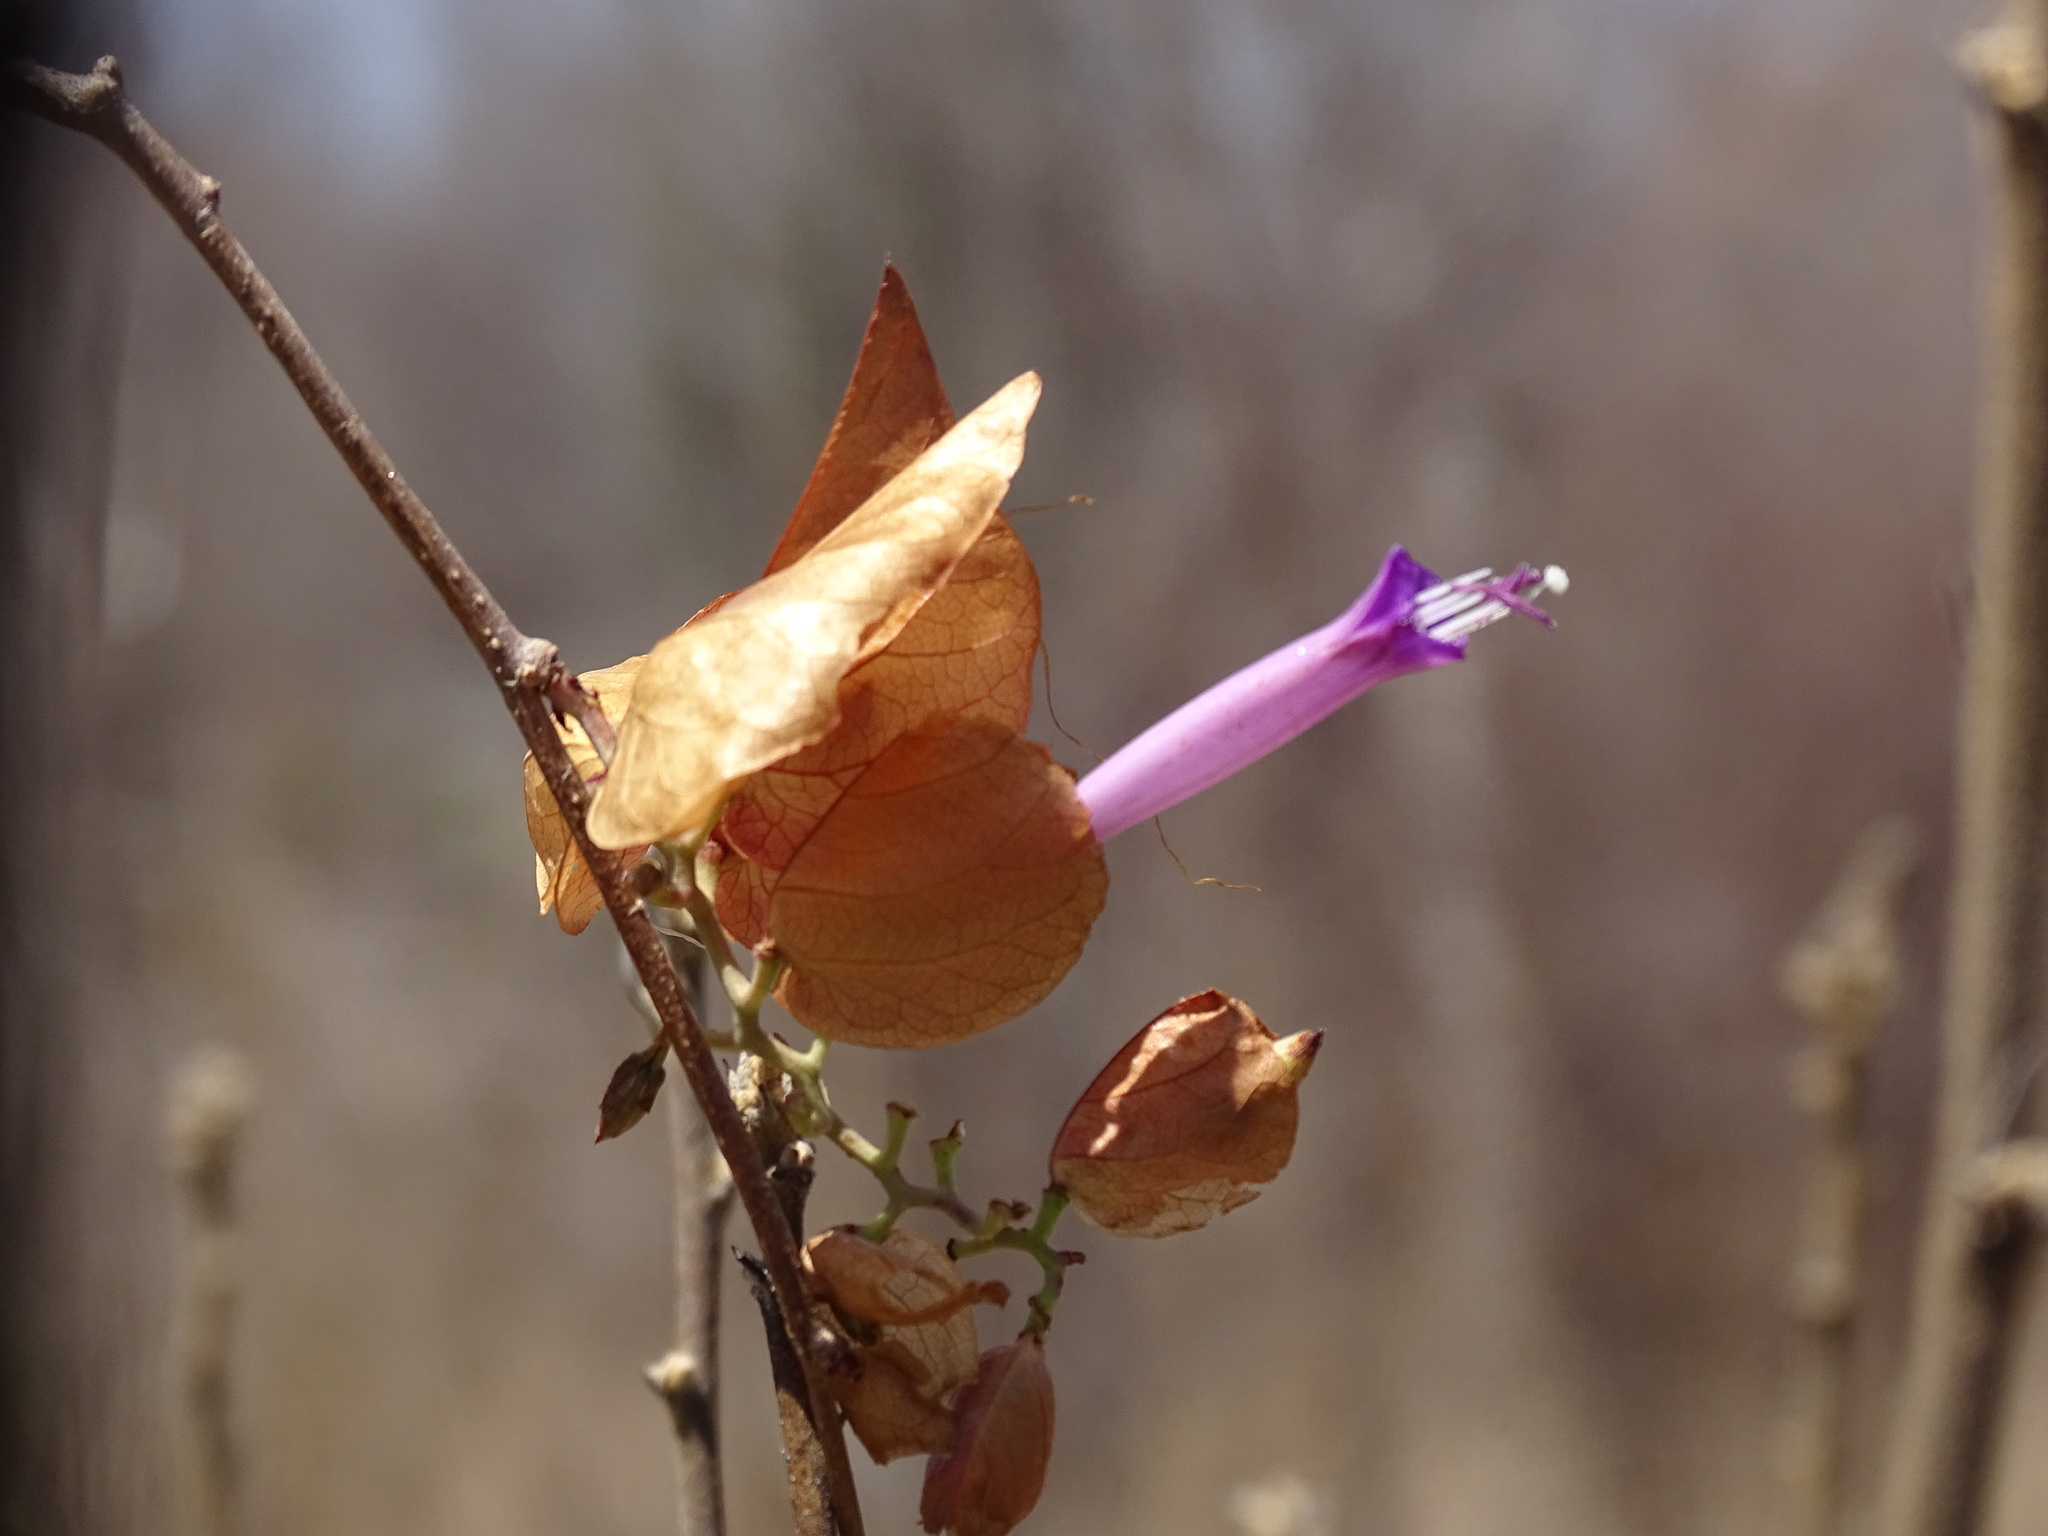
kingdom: Plantae
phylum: Tracheophyta
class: Magnoliopsida
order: Solanales
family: Convolvulaceae
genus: Ipomoea
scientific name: Ipomoea bracteata
